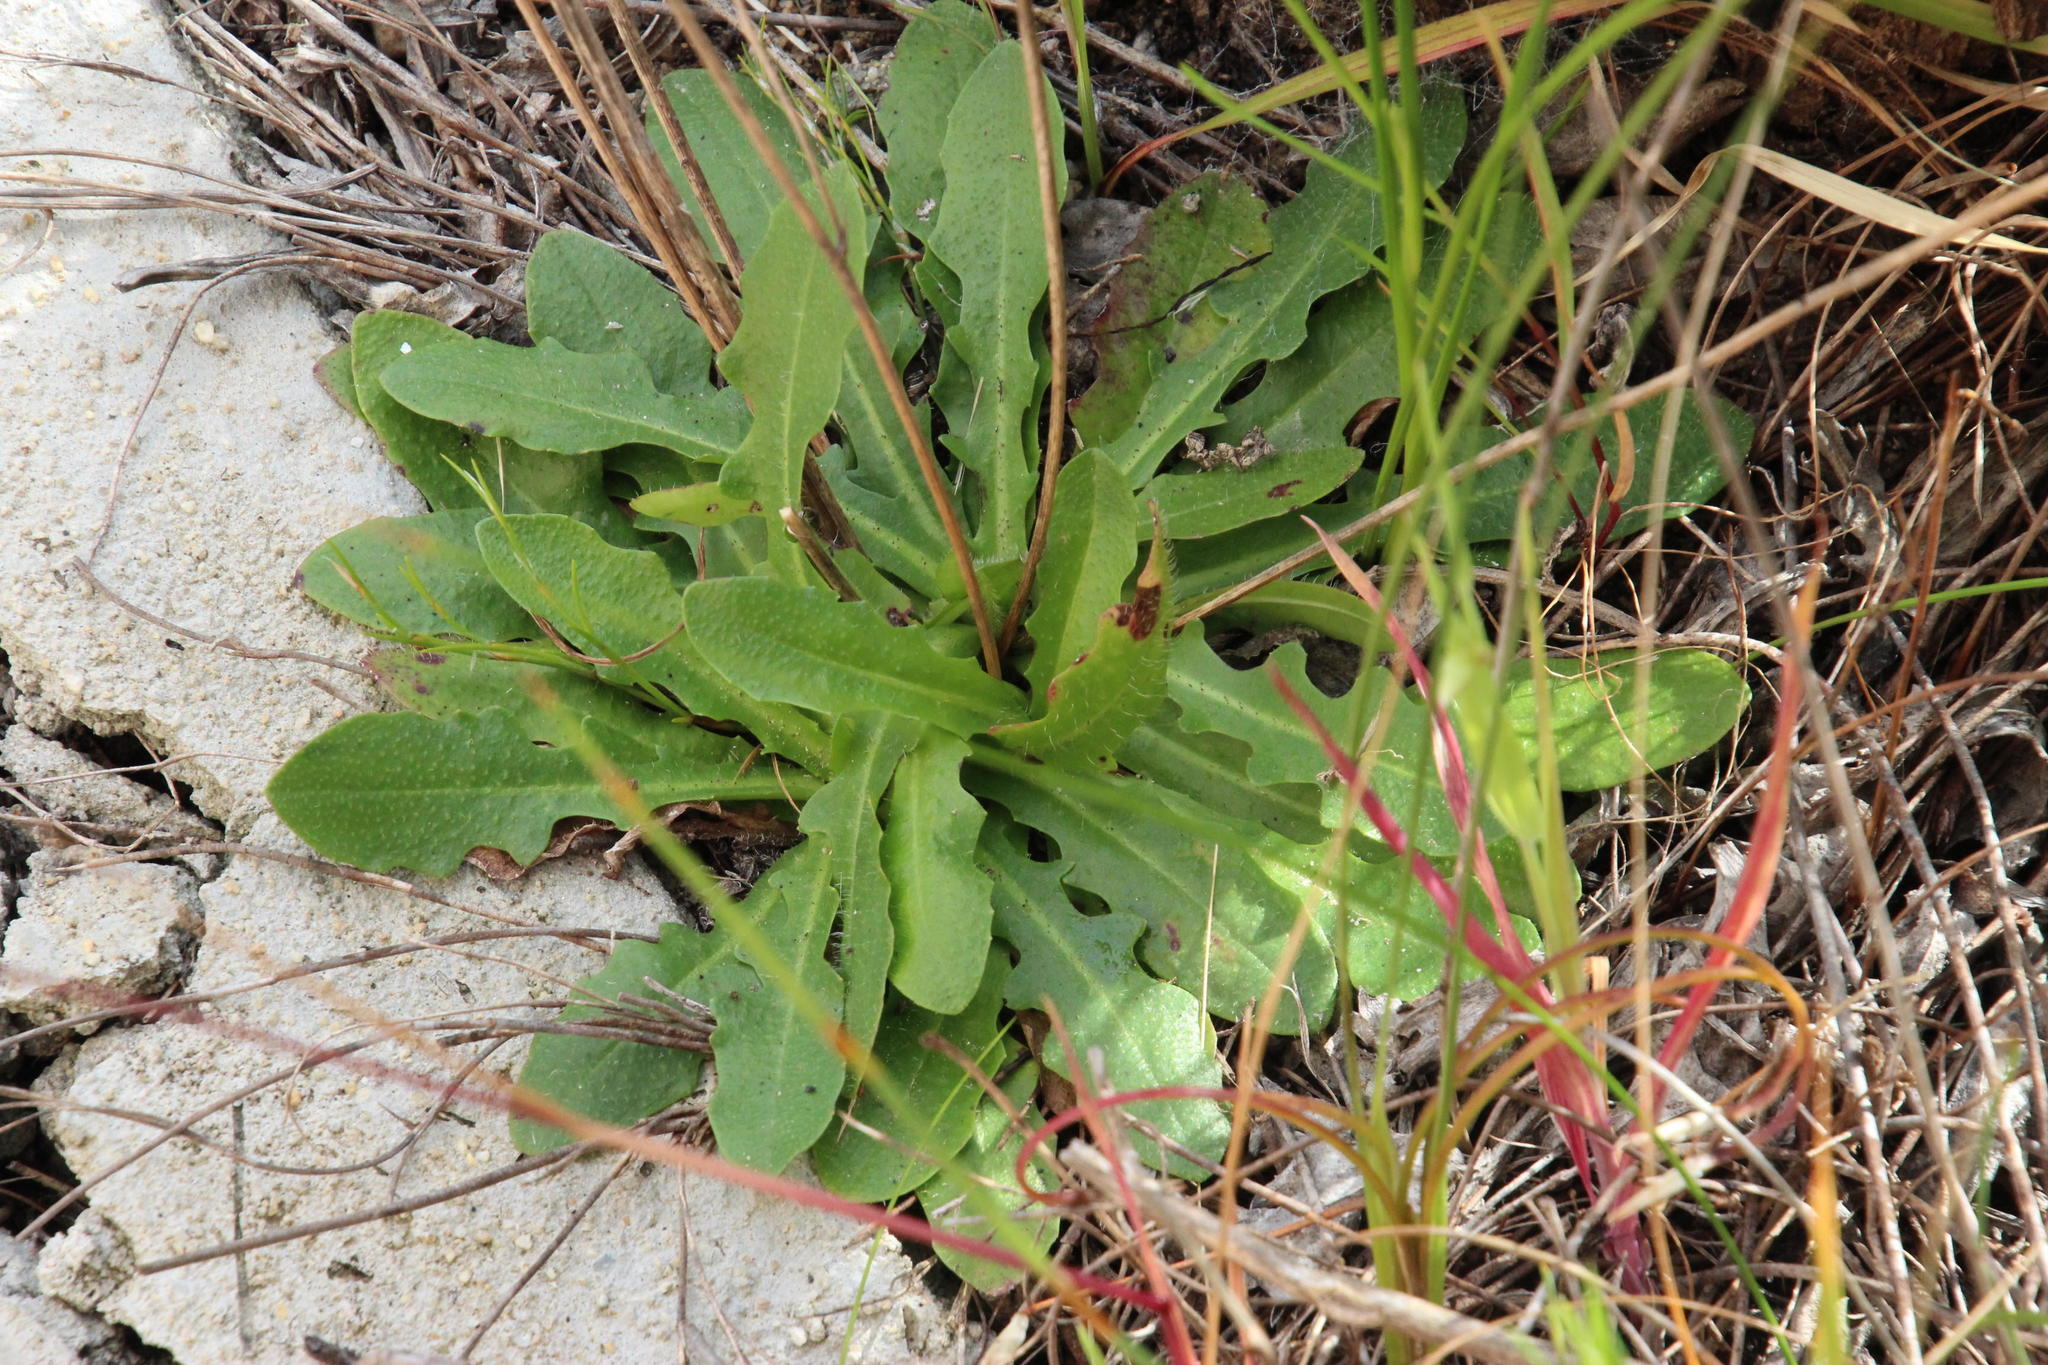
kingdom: Plantae
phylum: Tracheophyta
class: Magnoliopsida
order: Asterales
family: Asteraceae
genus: Hypochaeris
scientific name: Hypochaeris radicata
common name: Flatweed
